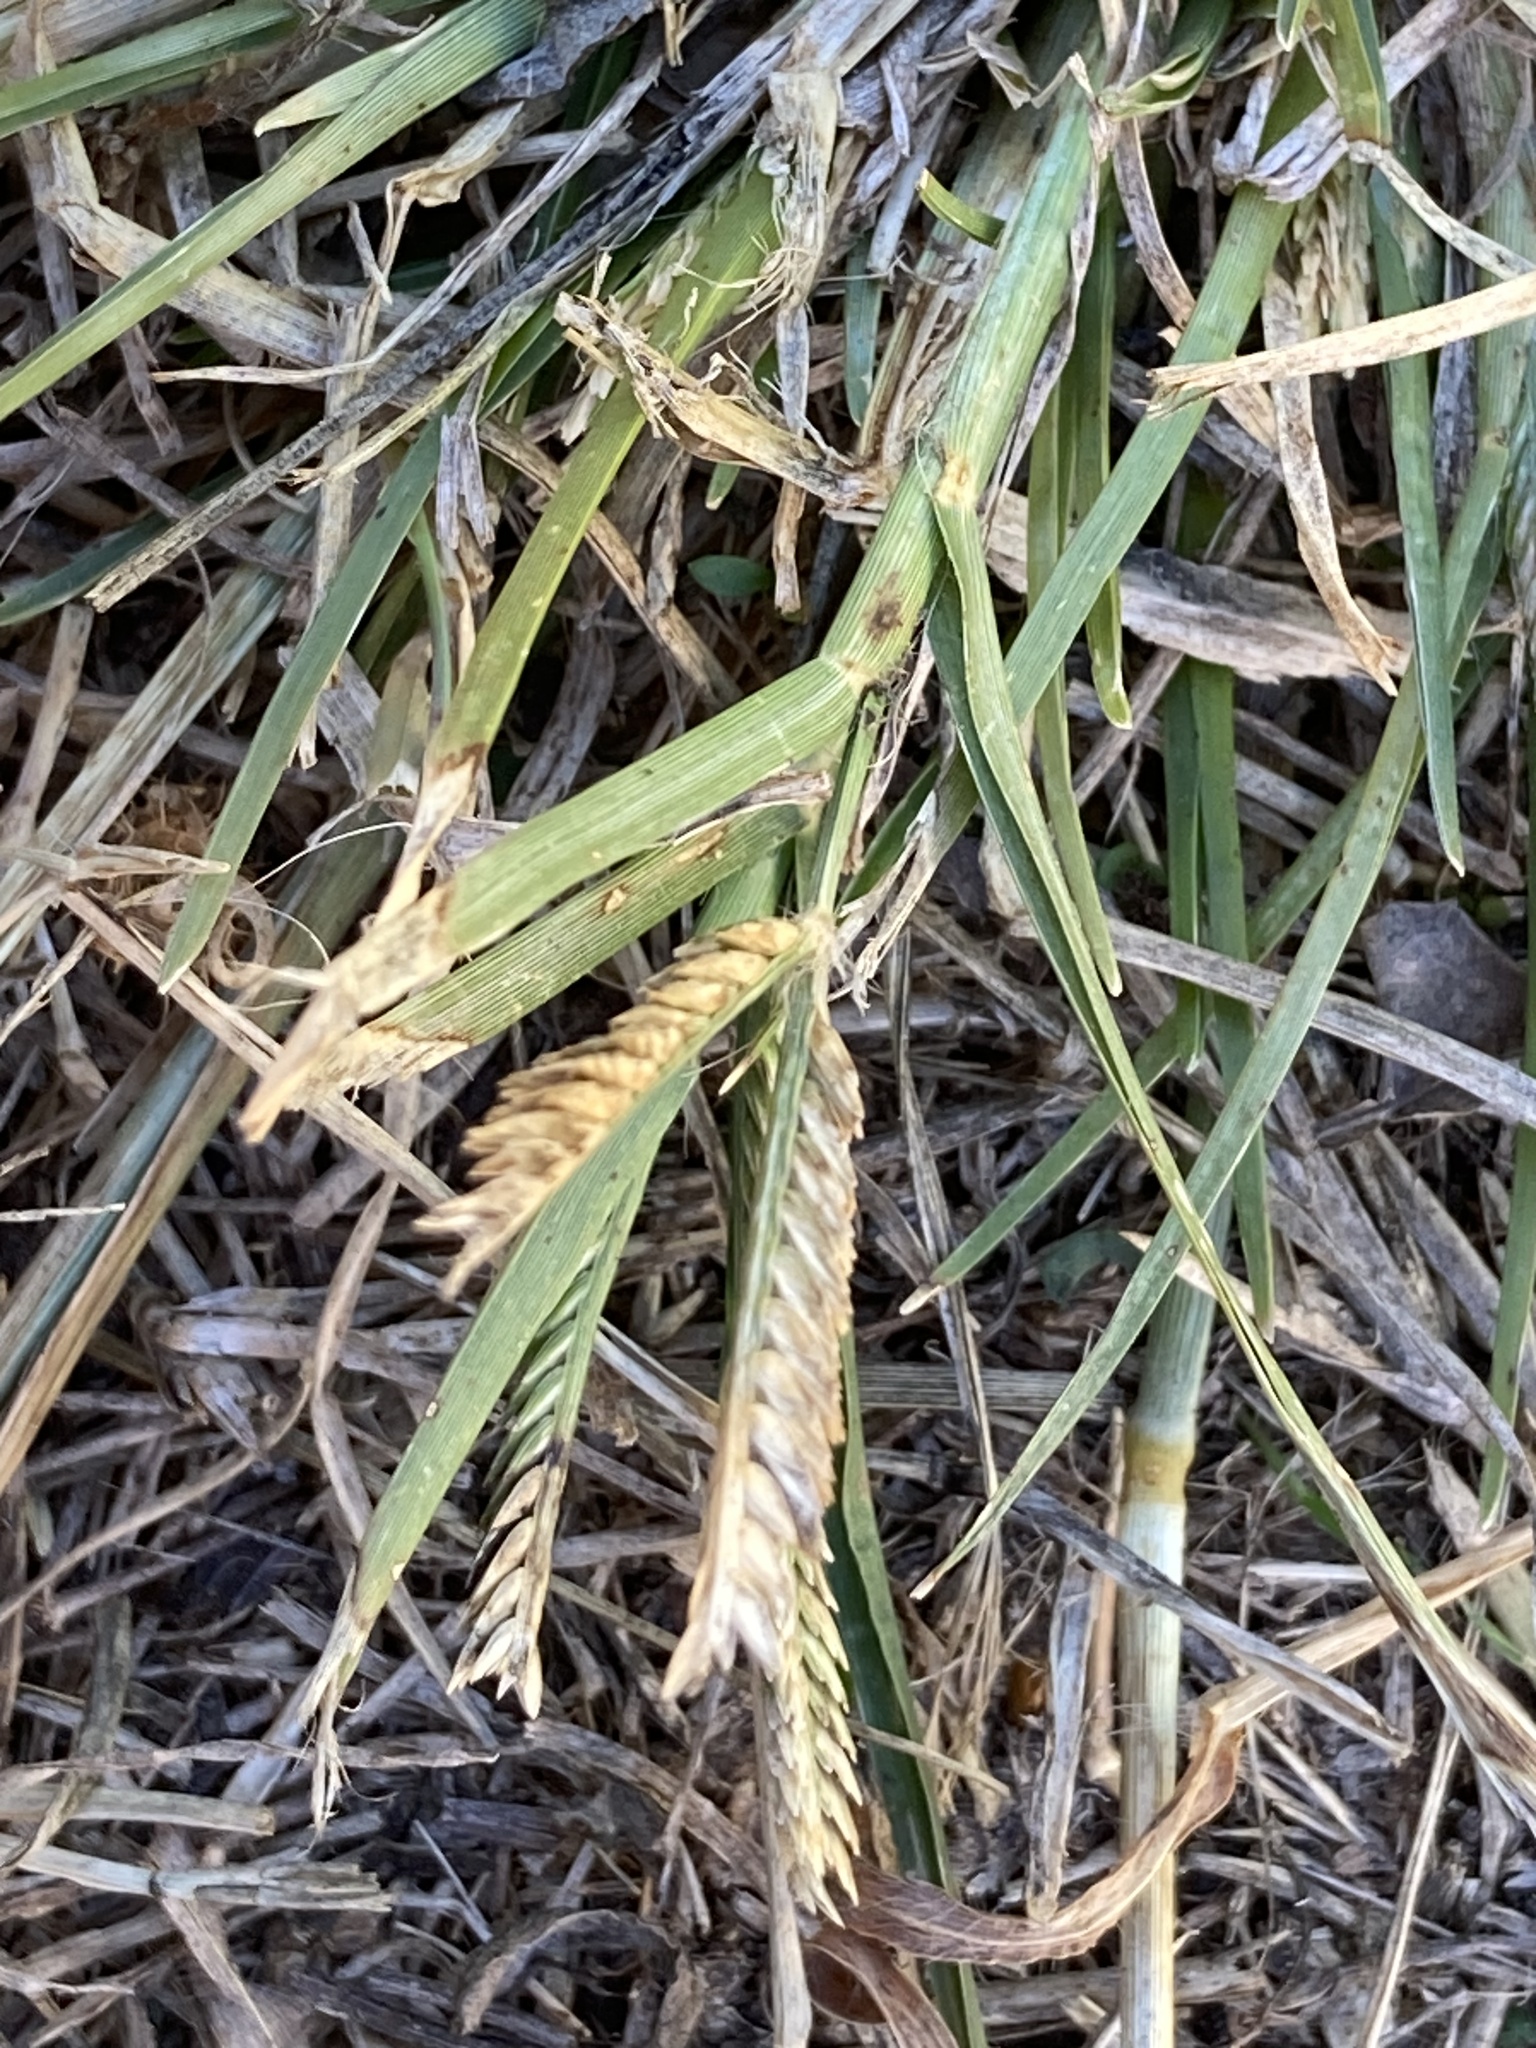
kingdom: Plantae
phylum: Tracheophyta
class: Liliopsida
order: Poales
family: Poaceae
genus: Eleusine
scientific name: Eleusine indica
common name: Yard-grass
